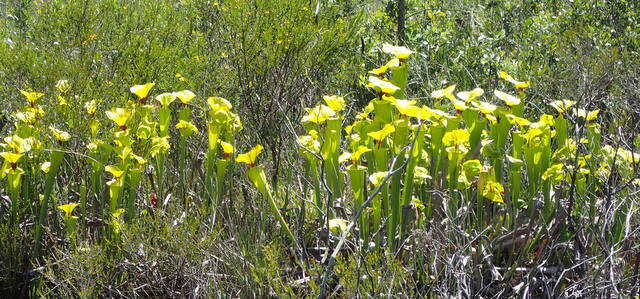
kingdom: Plantae
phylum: Tracheophyta
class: Magnoliopsida
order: Ericales
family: Sarraceniaceae
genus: Sarracenia
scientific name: Sarracenia flava
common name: Trumpets
